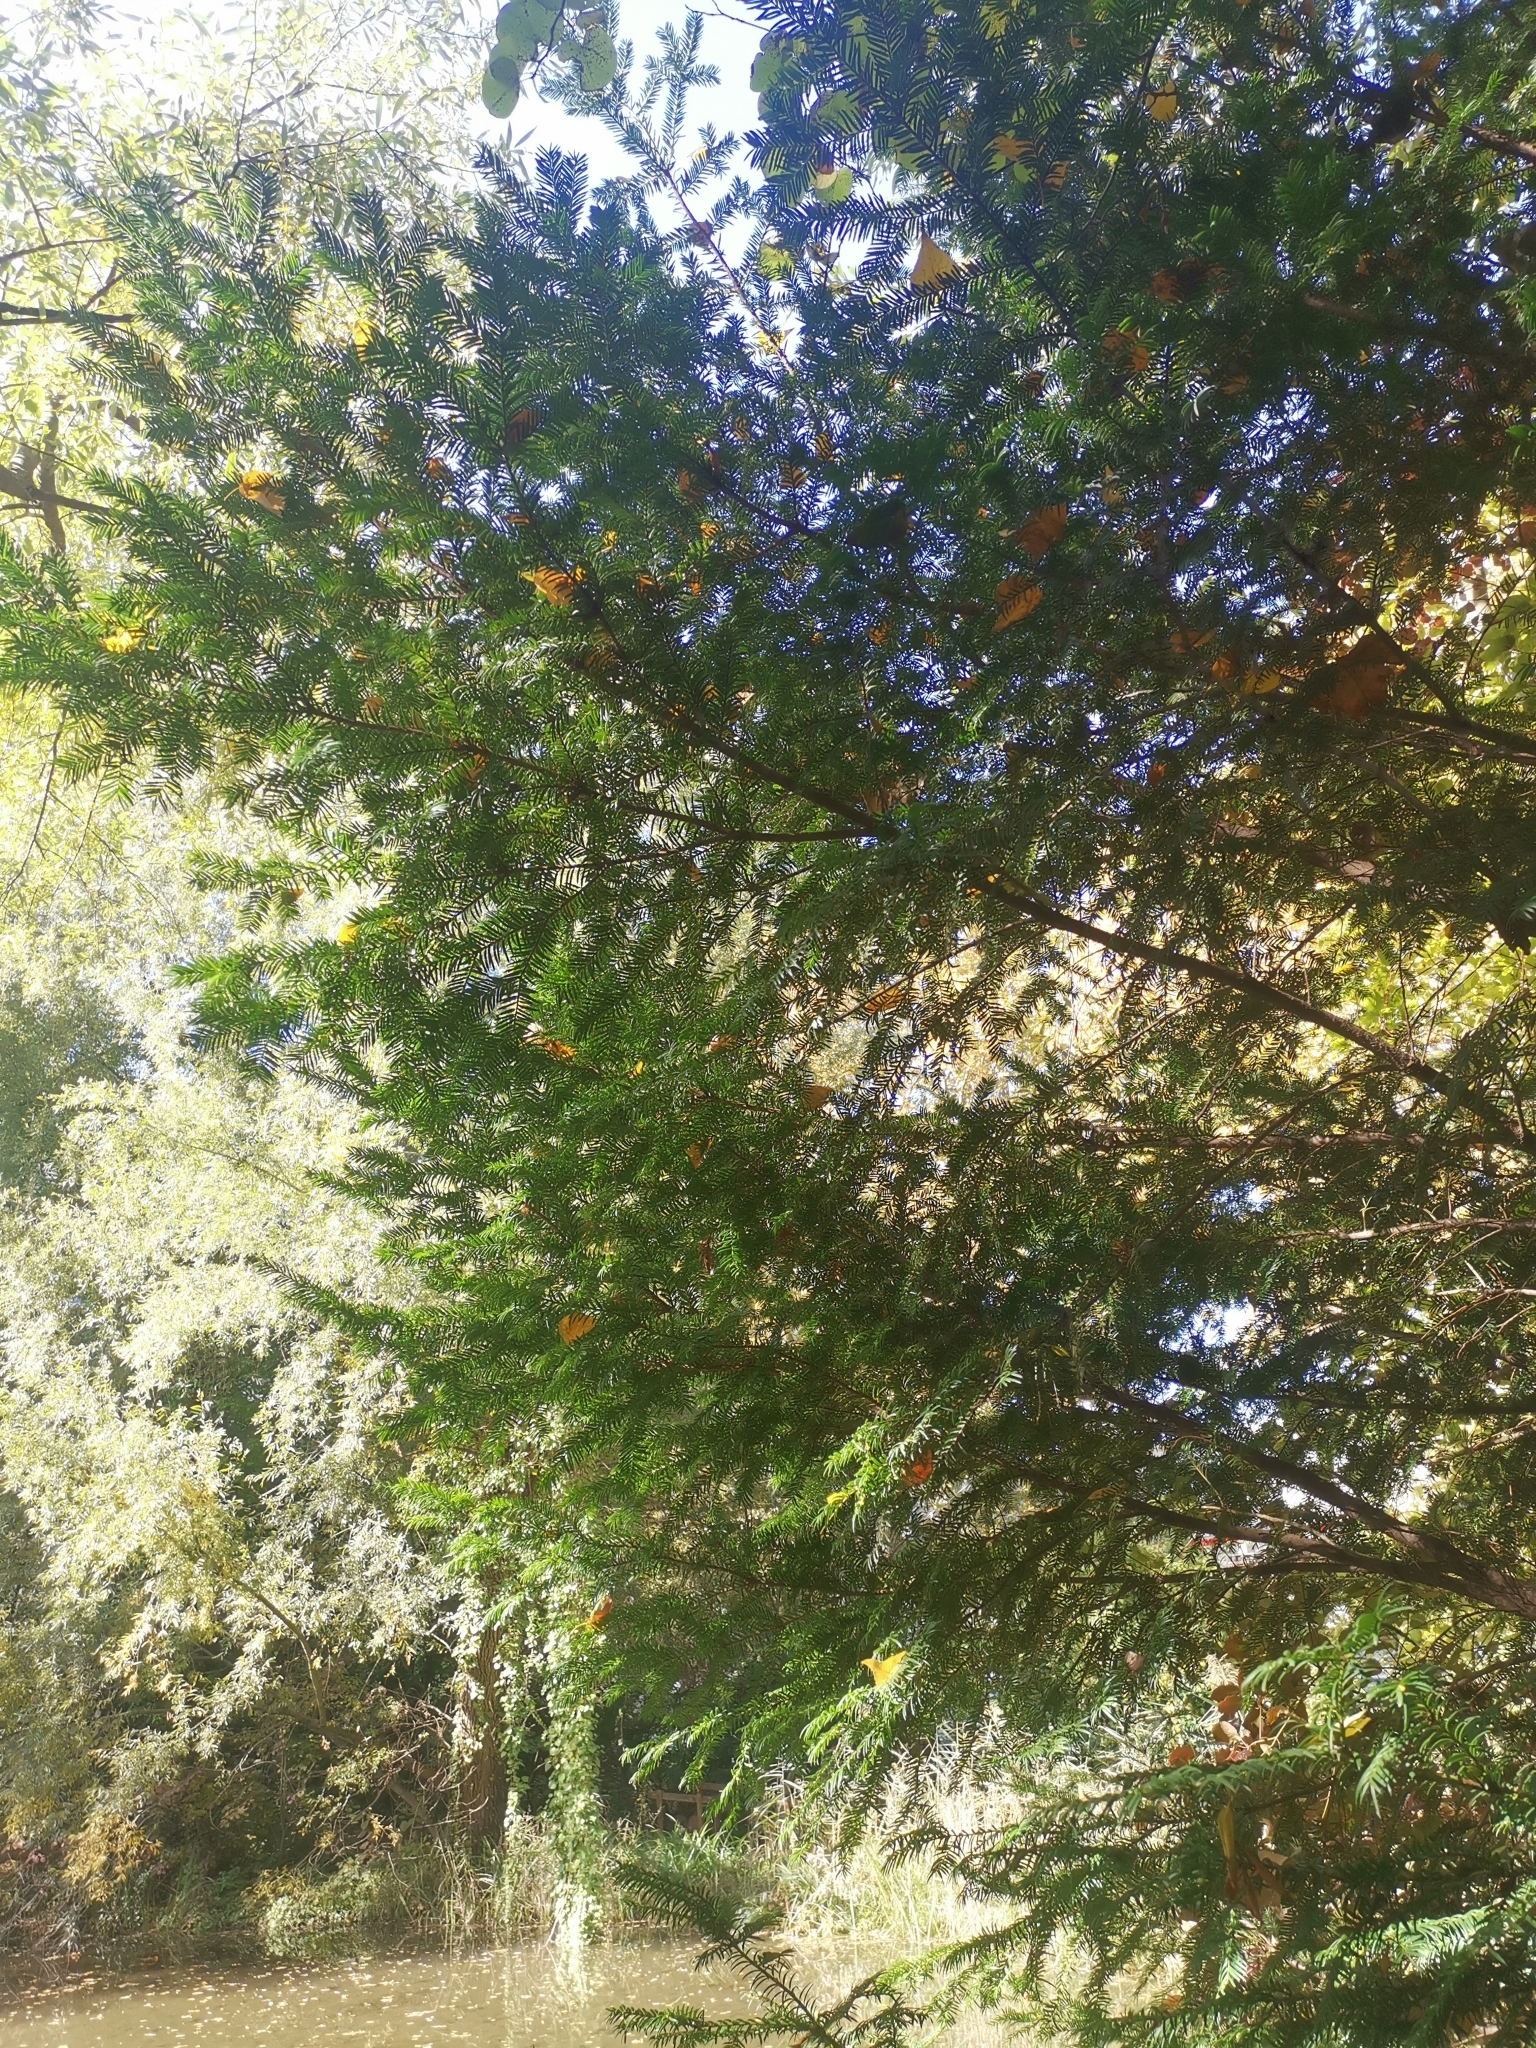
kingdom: Plantae
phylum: Tracheophyta
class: Pinopsida
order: Pinales
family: Taxaceae
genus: Taxus
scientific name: Taxus baccata
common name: Yew
